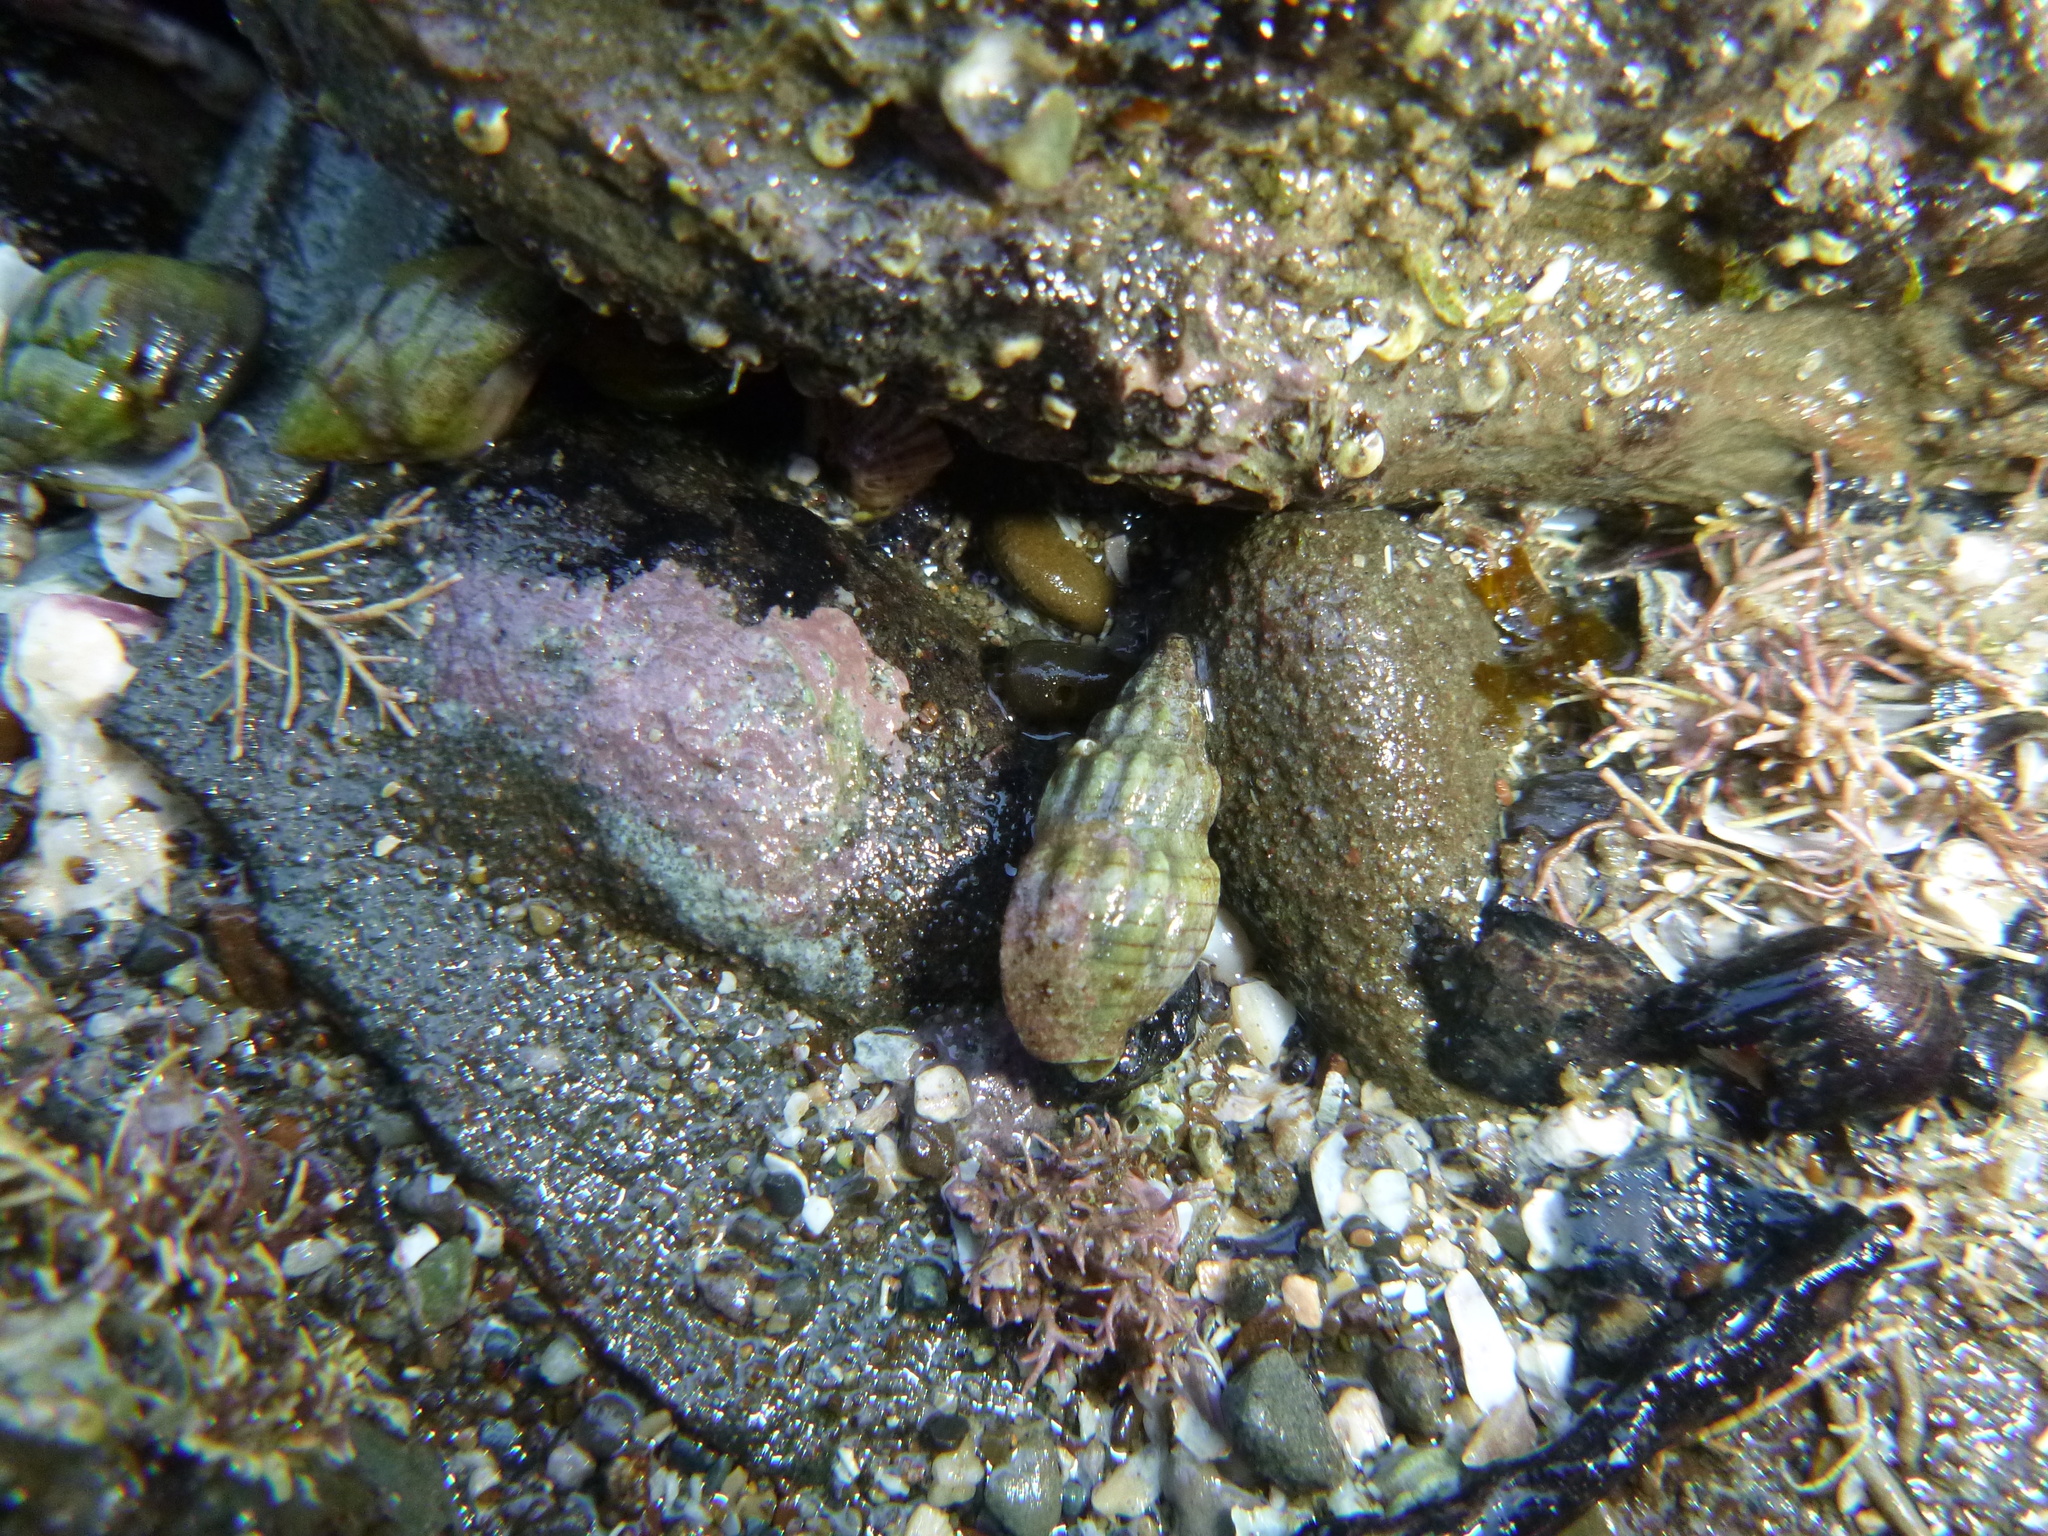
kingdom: Animalia
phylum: Mollusca
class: Gastropoda
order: Neogastropoda
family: Cominellidae
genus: Cominella
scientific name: Cominella quoyana
